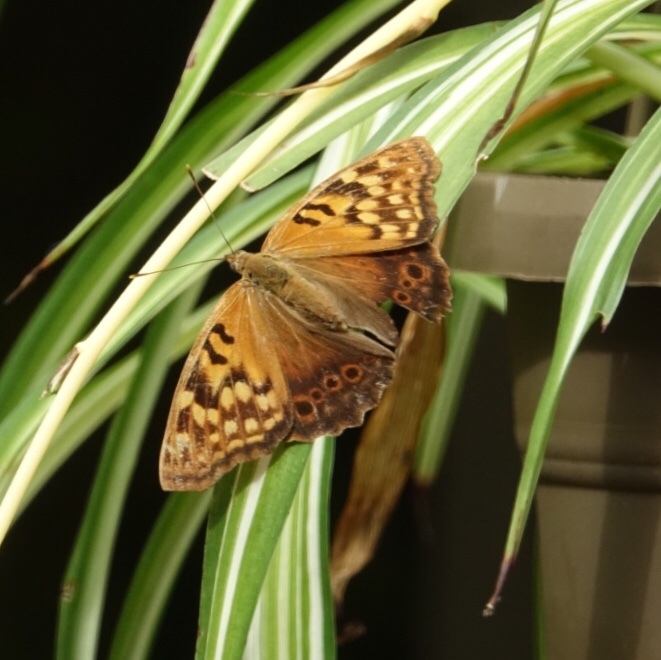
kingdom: Animalia
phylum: Arthropoda
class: Insecta
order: Lepidoptera
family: Nymphalidae
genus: Asterocampa
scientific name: Asterocampa clyton
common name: Tawny emperor
